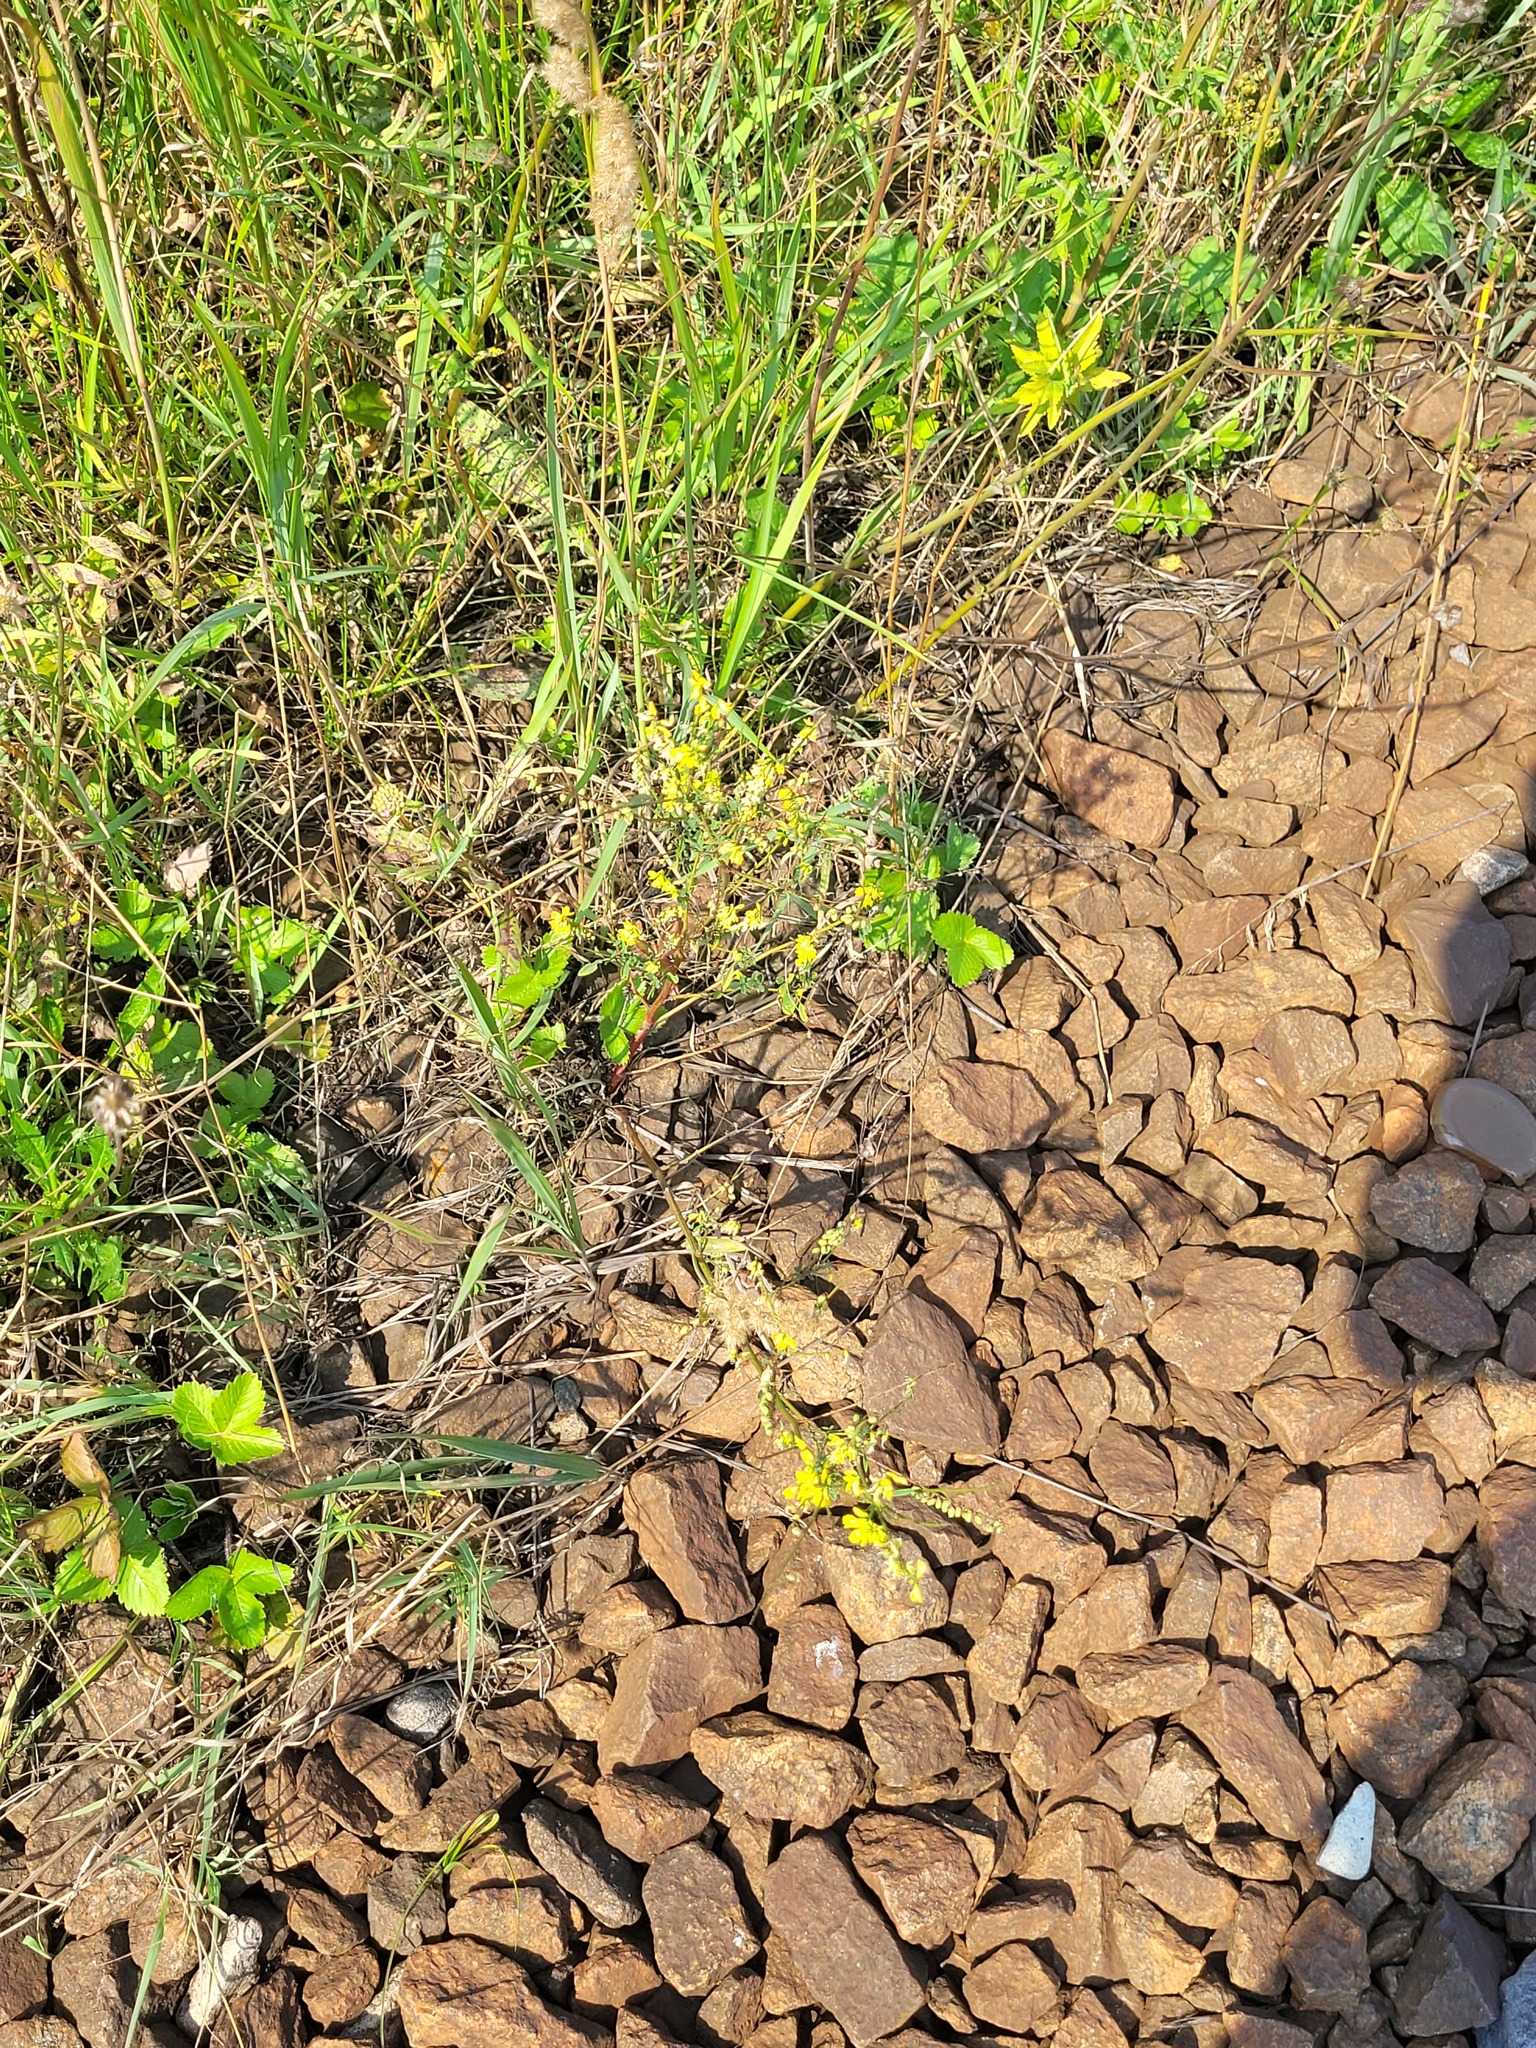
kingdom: Plantae
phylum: Tracheophyta
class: Magnoliopsida
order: Fabales
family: Fabaceae
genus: Melilotus
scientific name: Melilotus officinalis
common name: Sweetclover
